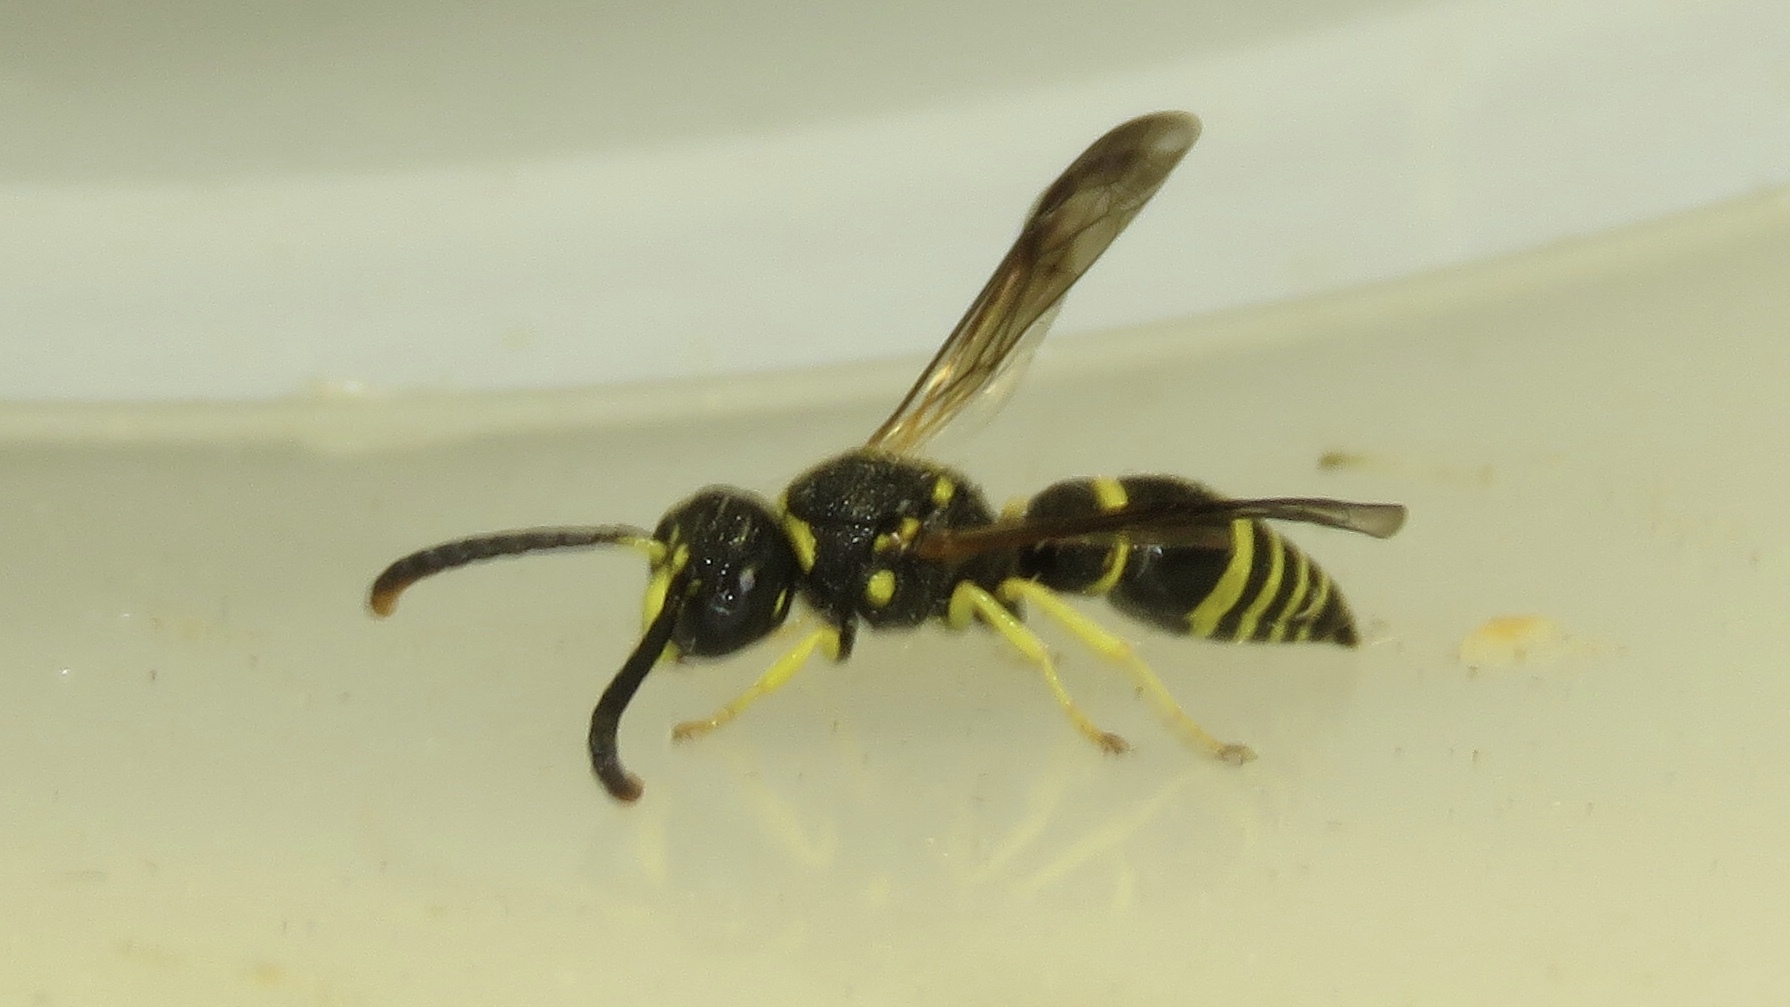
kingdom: Animalia
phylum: Arthropoda
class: Insecta
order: Hymenoptera
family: Vespidae
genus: Ancistrocerus
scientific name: Ancistrocerus
